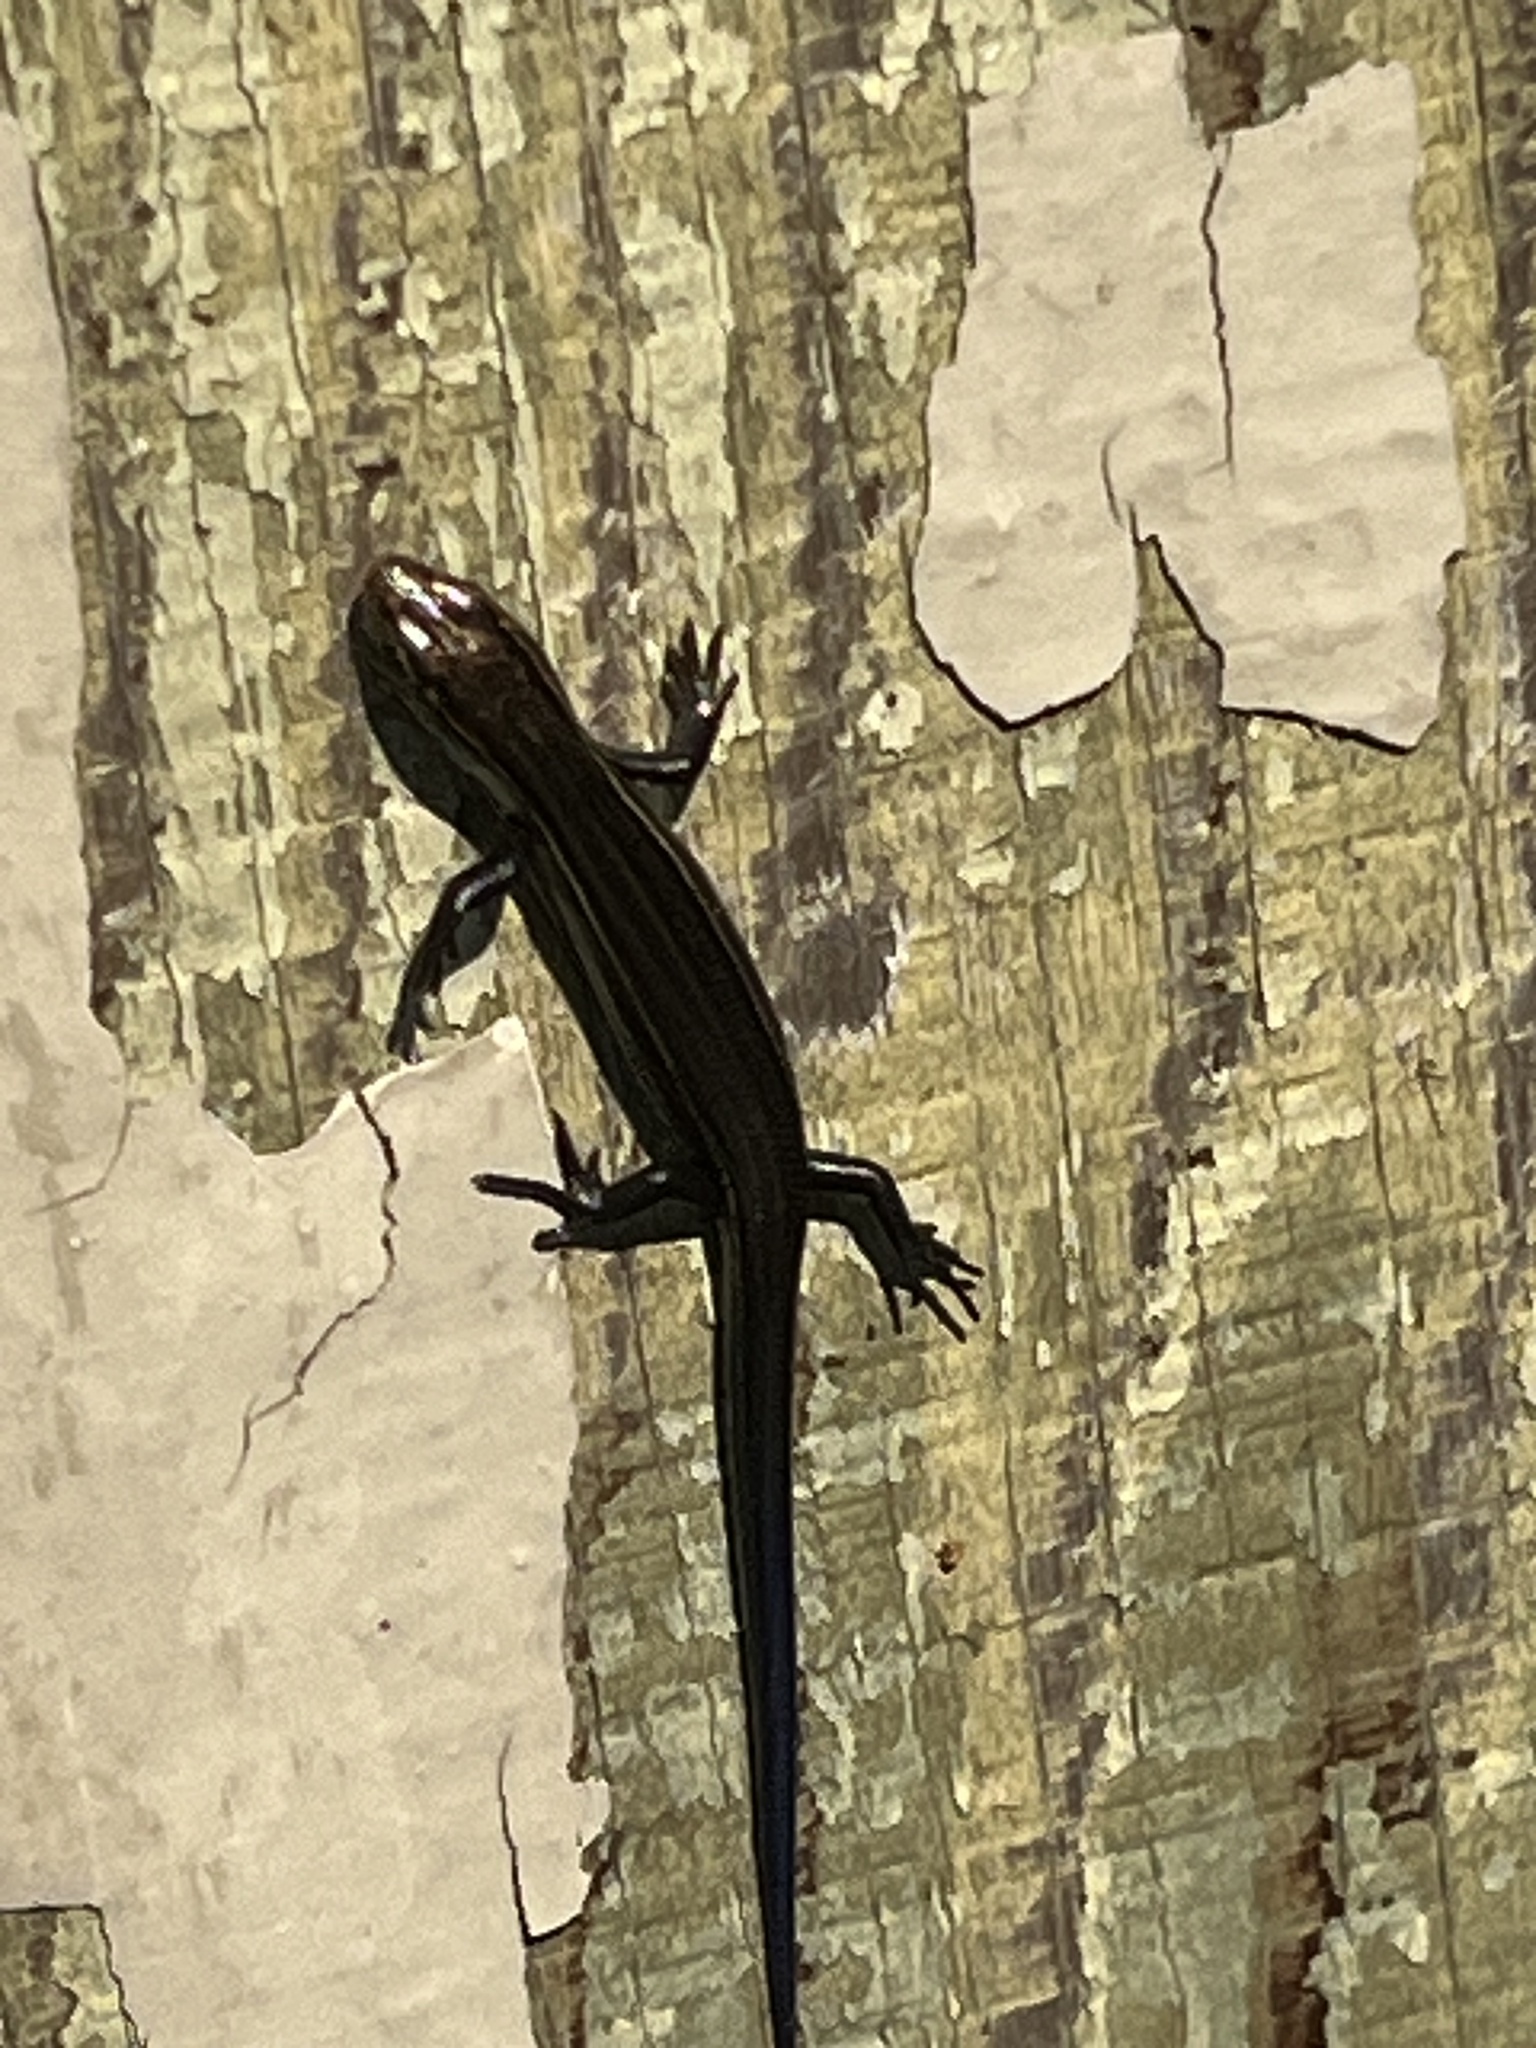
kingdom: Animalia
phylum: Chordata
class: Squamata
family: Scincidae
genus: Plestiodon
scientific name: Plestiodon septentrionalis
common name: Northern prairie skink
